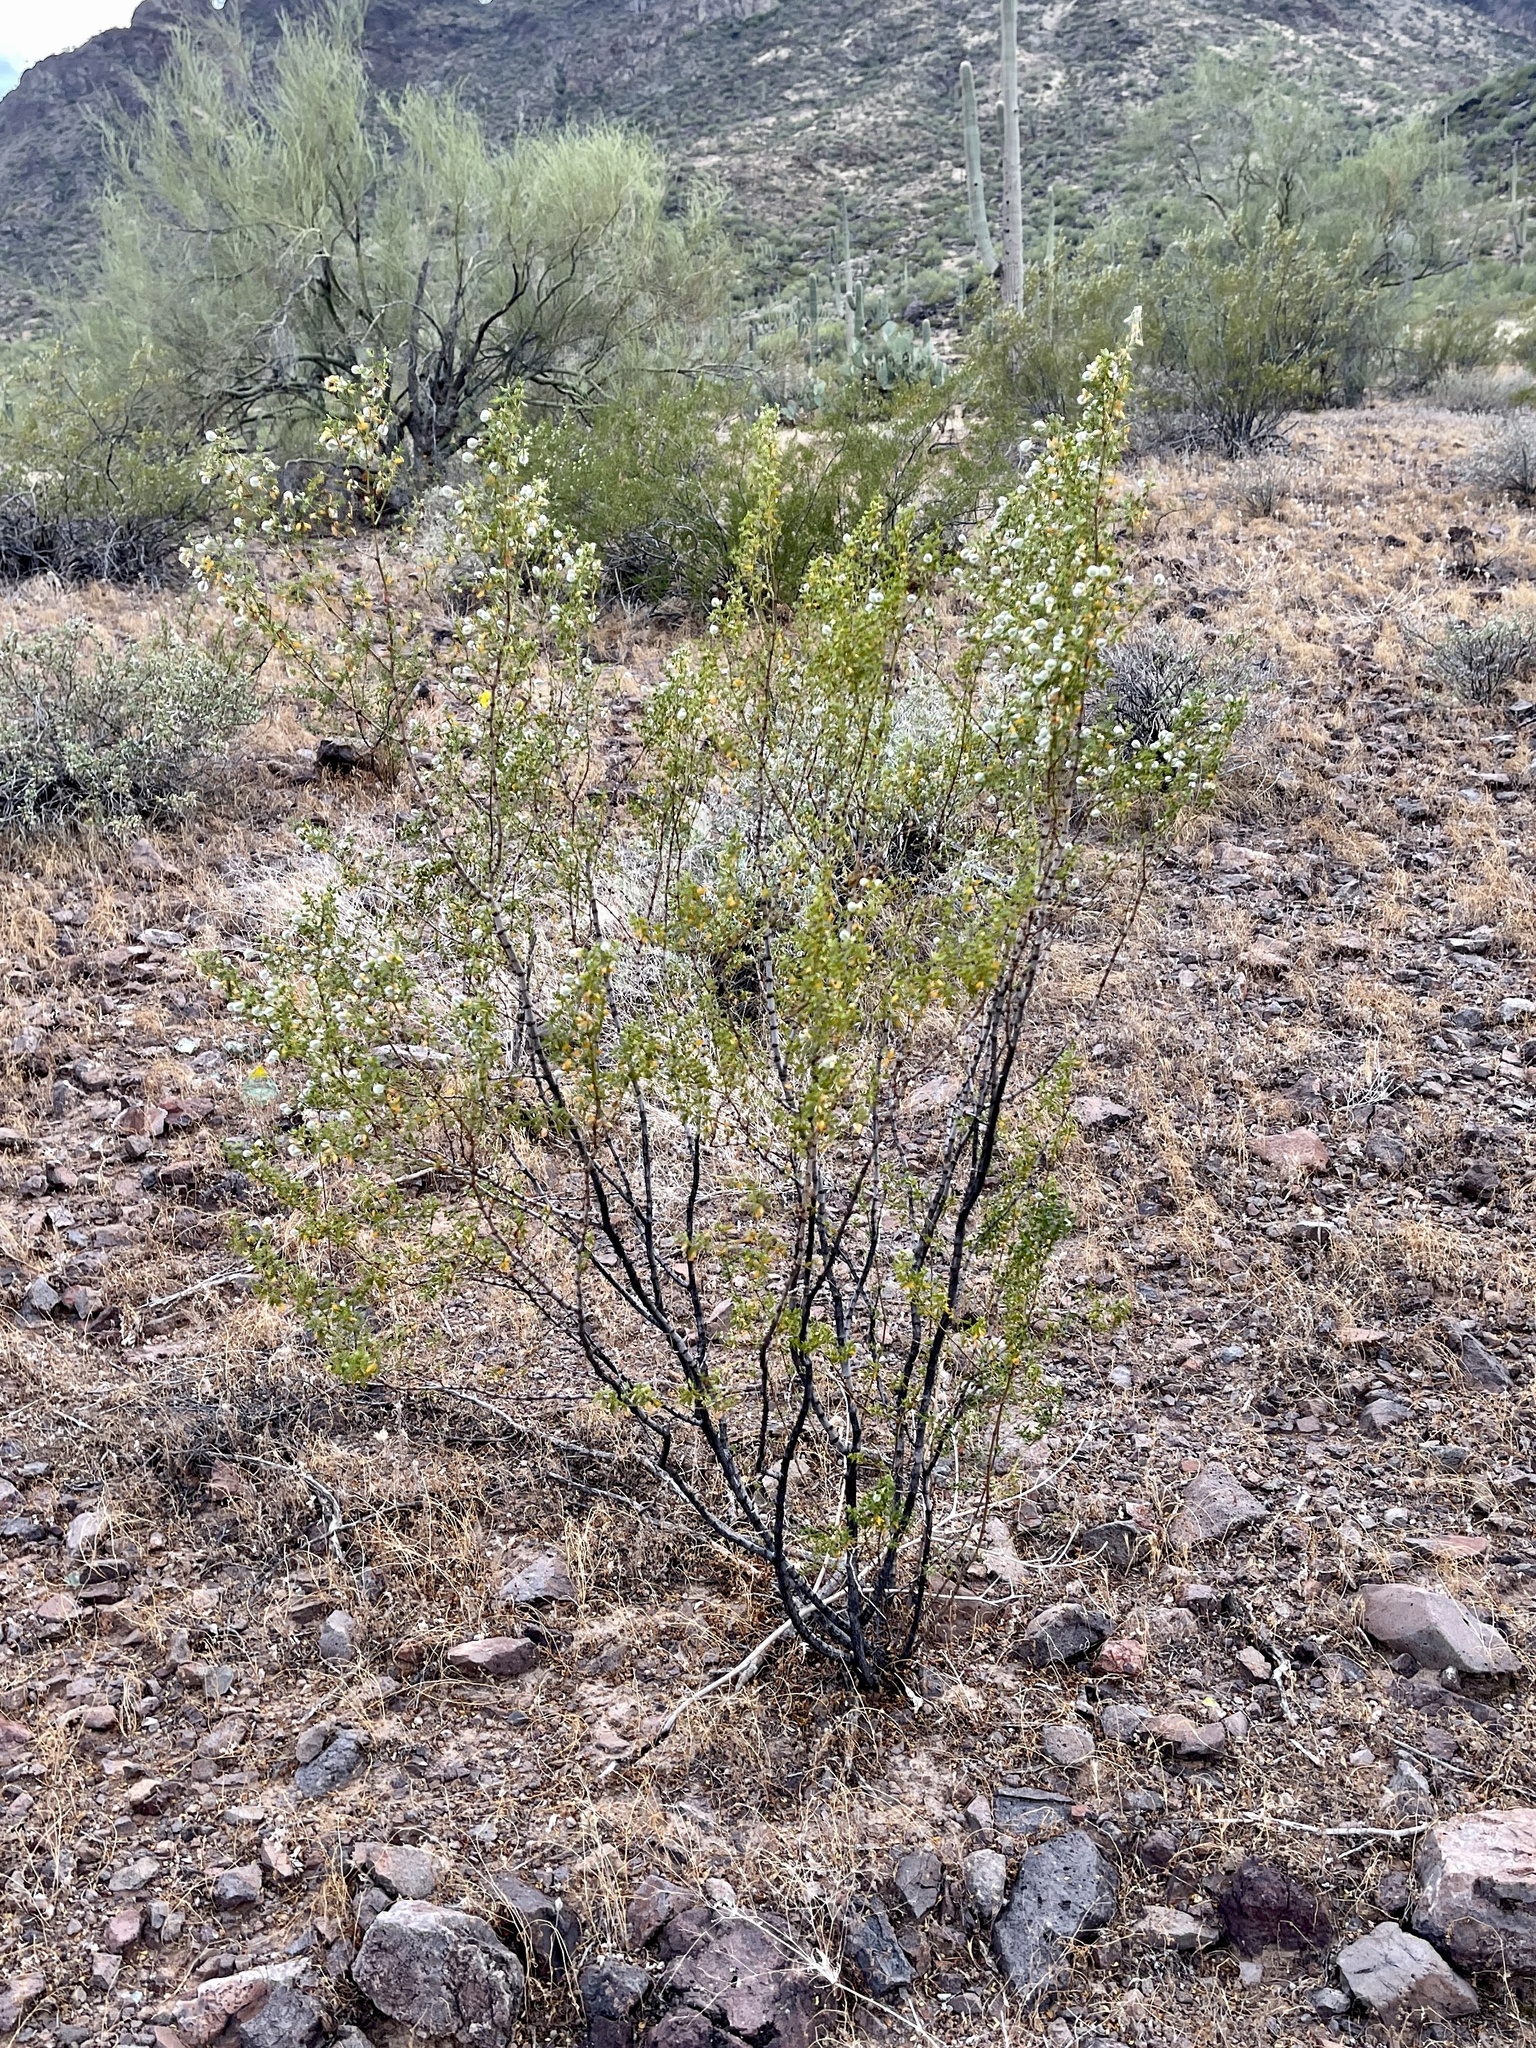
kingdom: Plantae
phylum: Tracheophyta
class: Magnoliopsida
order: Zygophyllales
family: Zygophyllaceae
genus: Larrea
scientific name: Larrea tridentata
